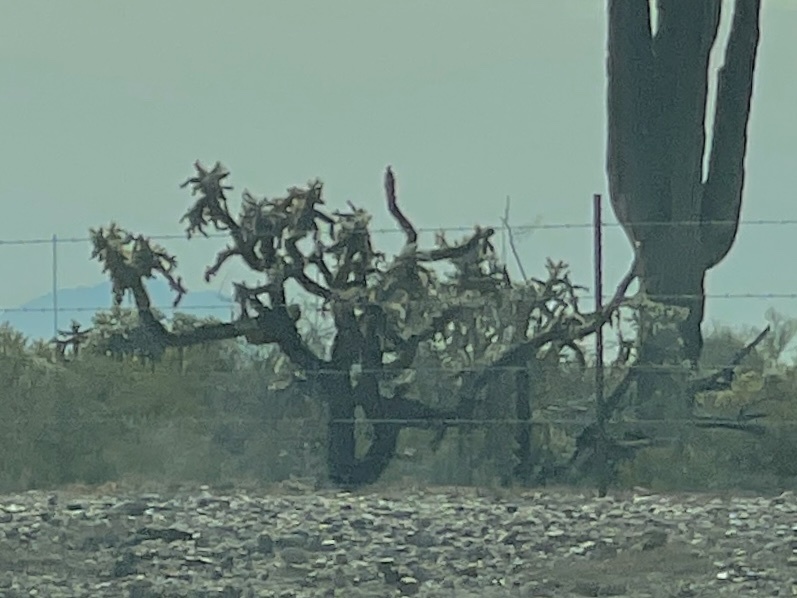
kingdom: Plantae
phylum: Tracheophyta
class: Magnoliopsida
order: Caryophyllales
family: Cactaceae
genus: Cylindropuntia
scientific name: Cylindropuntia fulgida
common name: Jumping cholla
